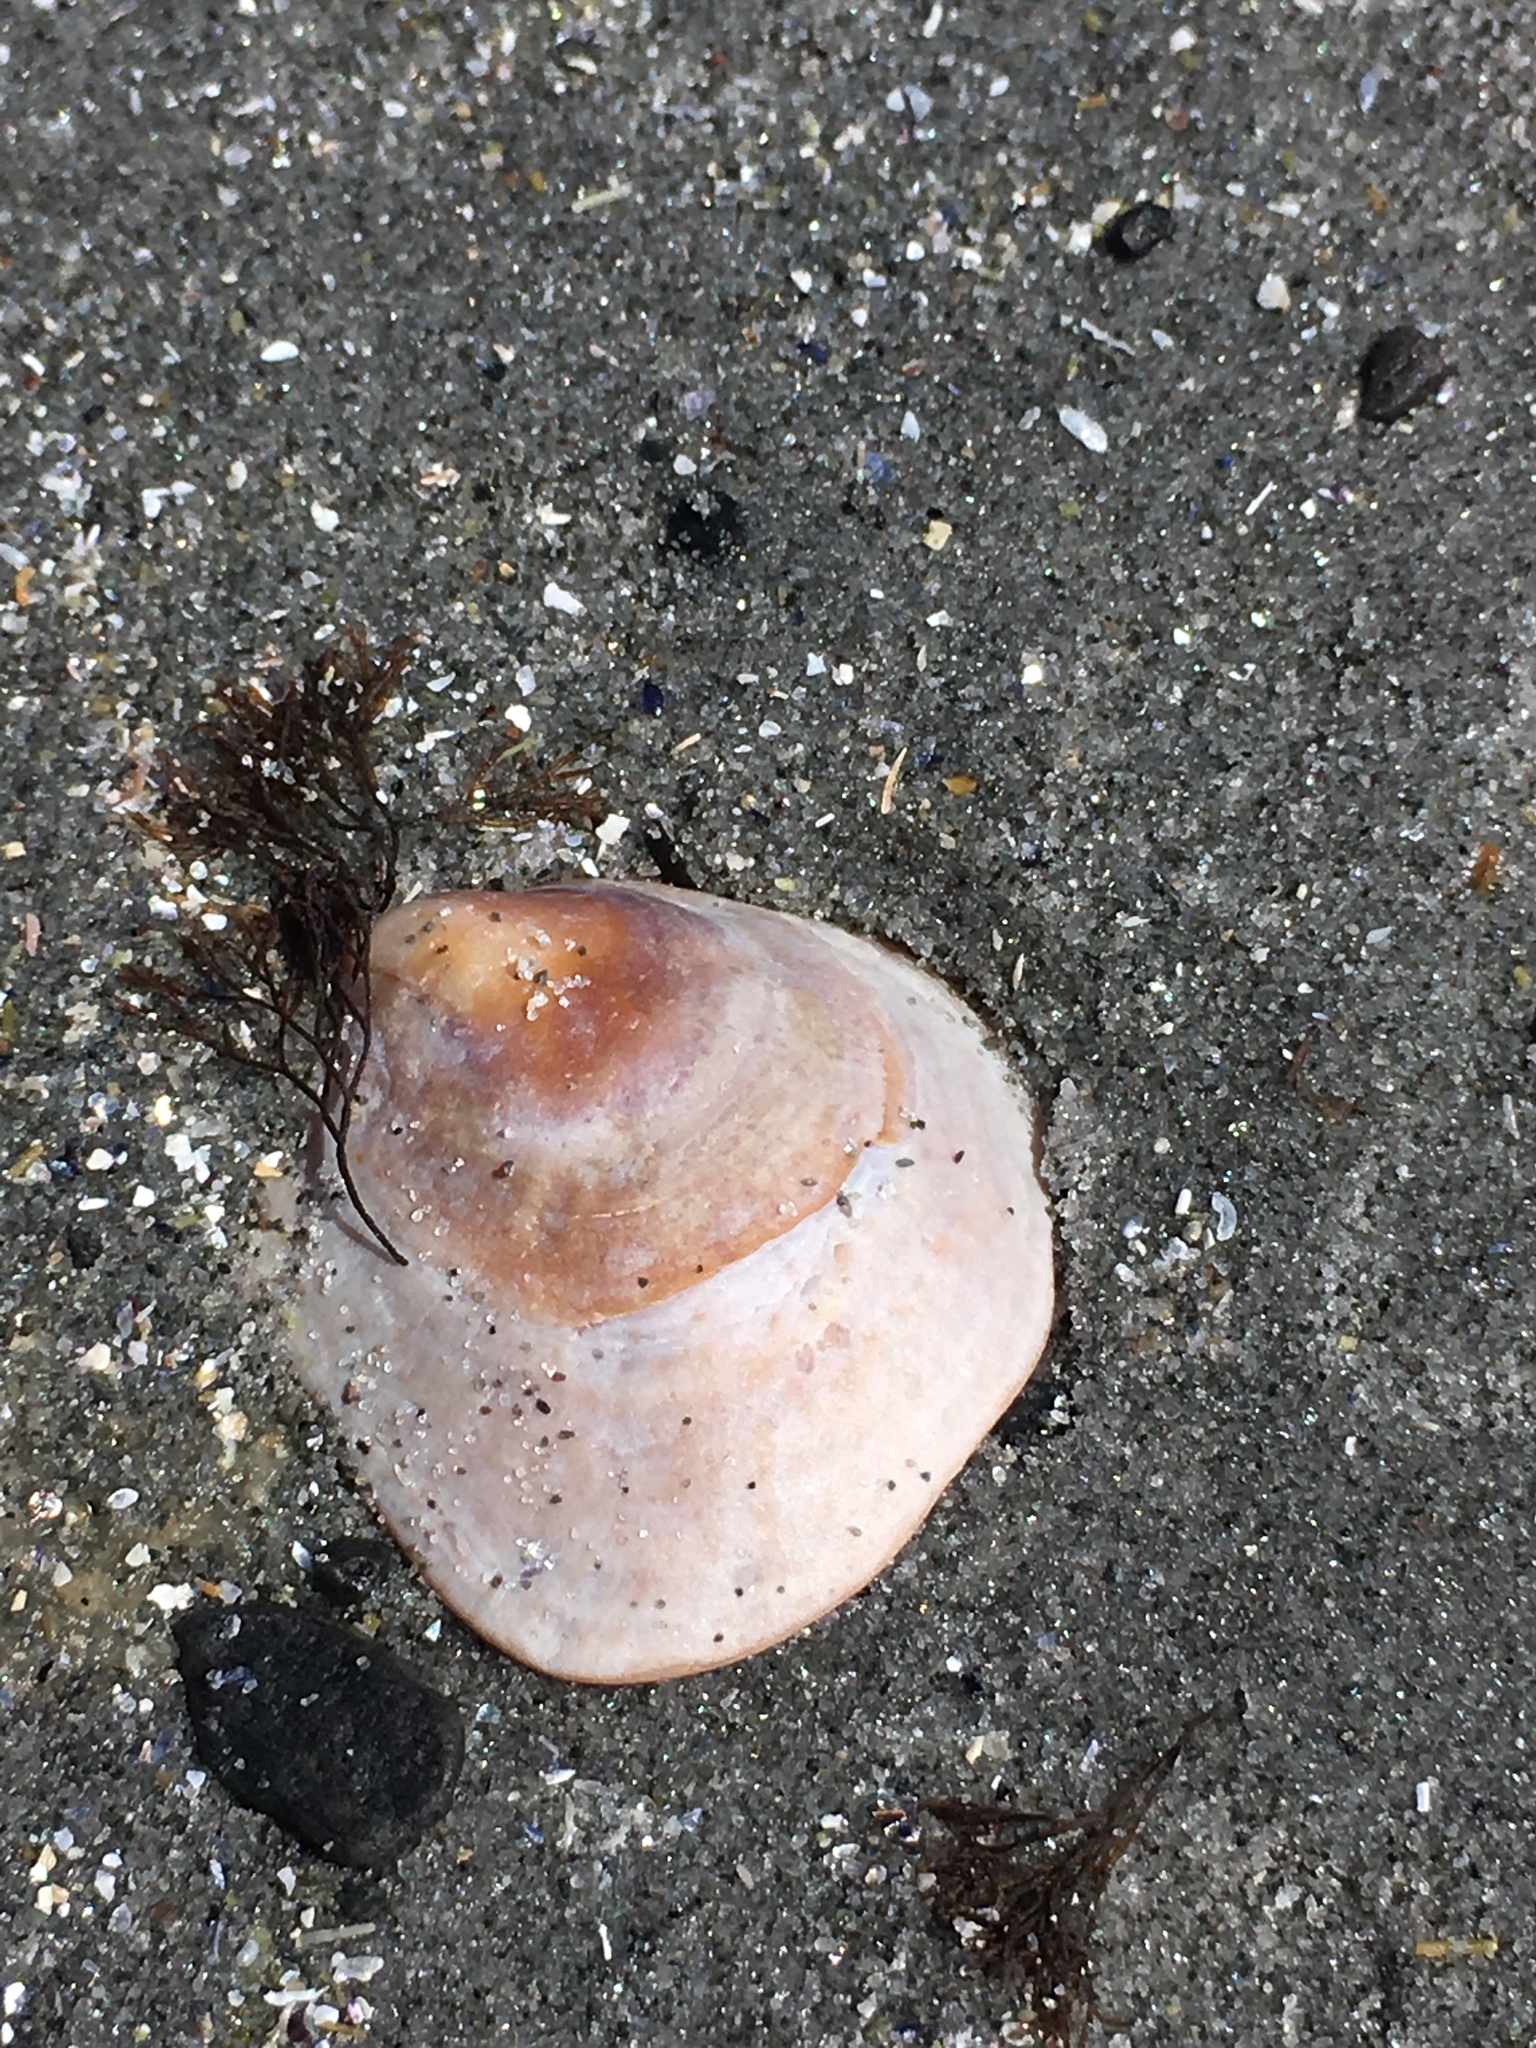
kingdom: Animalia
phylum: Mollusca
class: Gastropoda
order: Littorinimorpha
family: Calyptraeidae
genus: Crepidula
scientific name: Crepidula fornicata
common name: Slipper limpet
